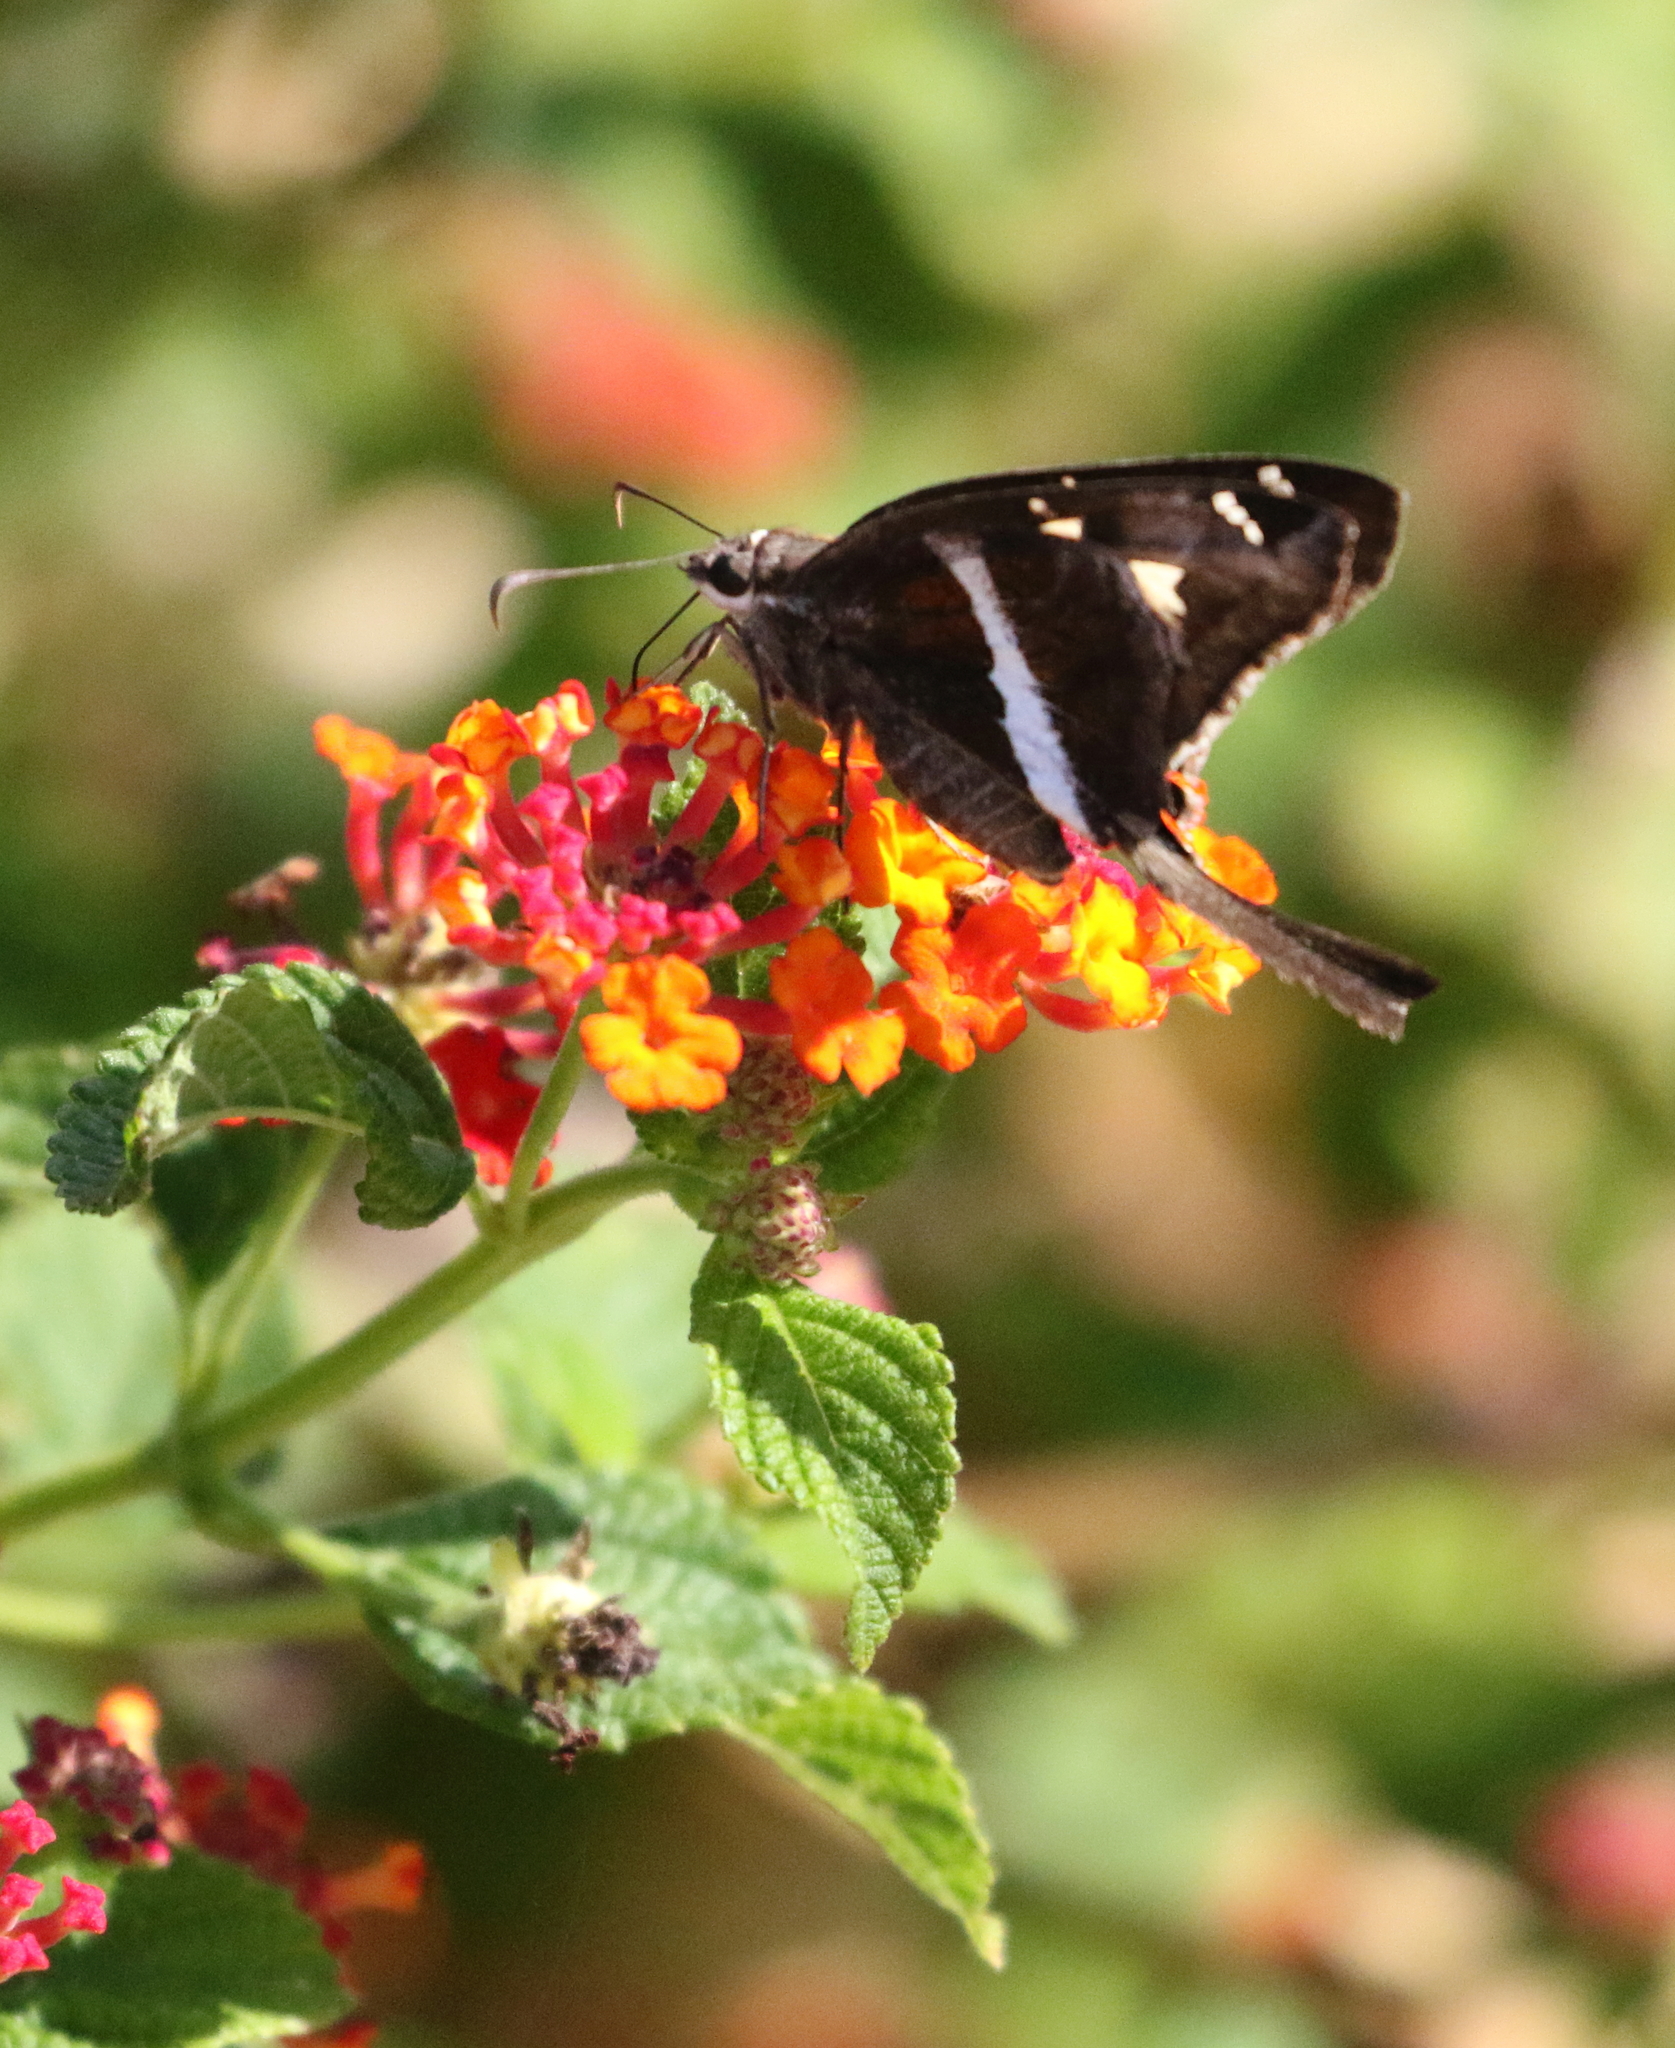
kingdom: Animalia
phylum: Arthropoda
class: Insecta
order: Lepidoptera
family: Hesperiidae
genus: Chioides
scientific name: Chioides catillus
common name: Silverbanded skipper
